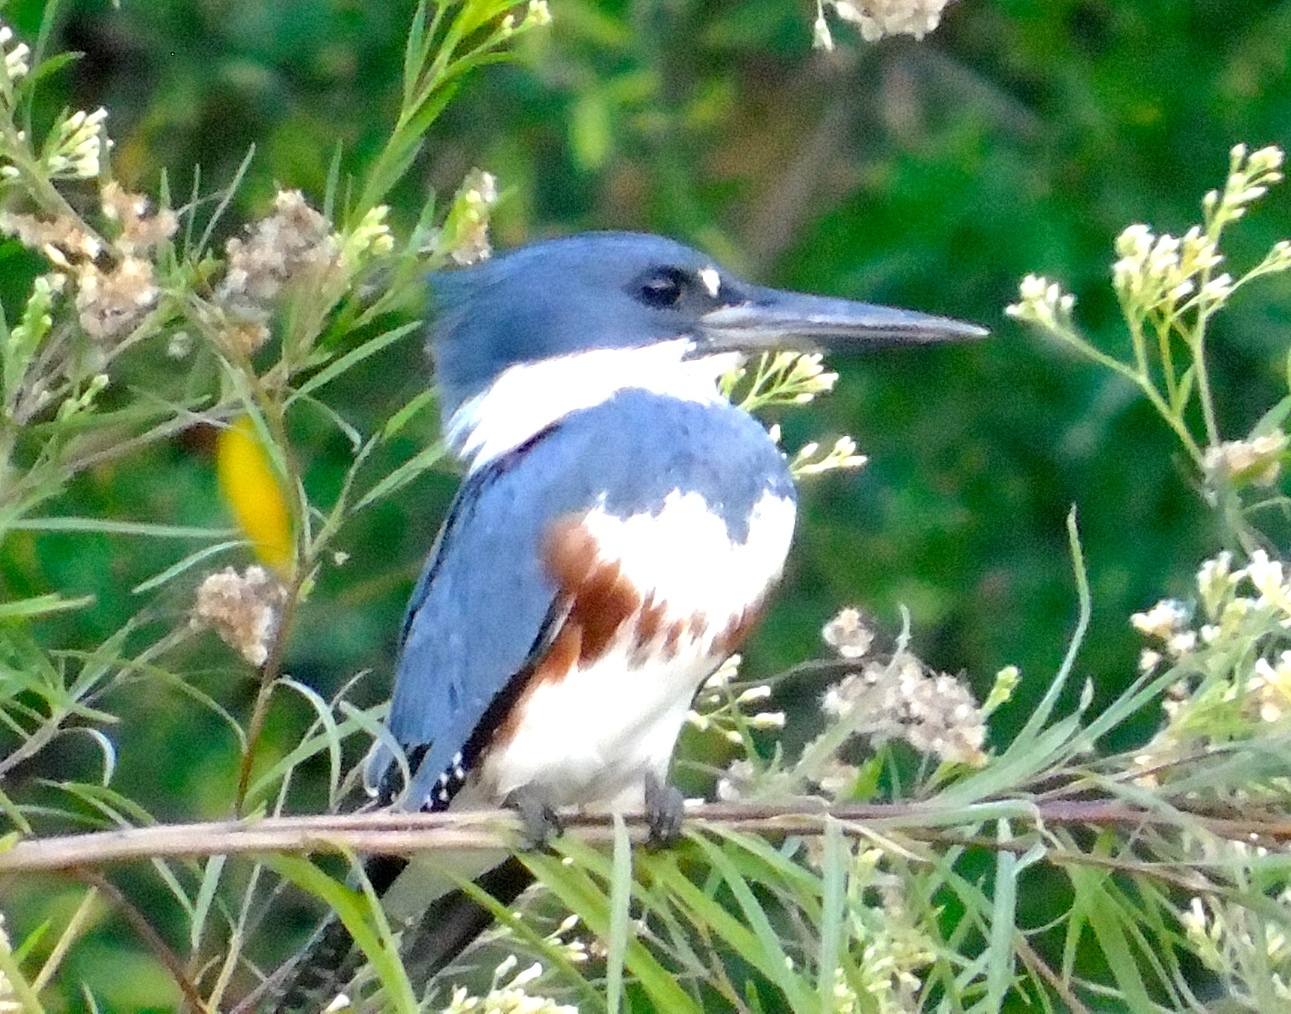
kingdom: Animalia
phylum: Chordata
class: Aves
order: Coraciiformes
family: Alcedinidae
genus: Megaceryle
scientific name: Megaceryle alcyon
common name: Belted kingfisher
